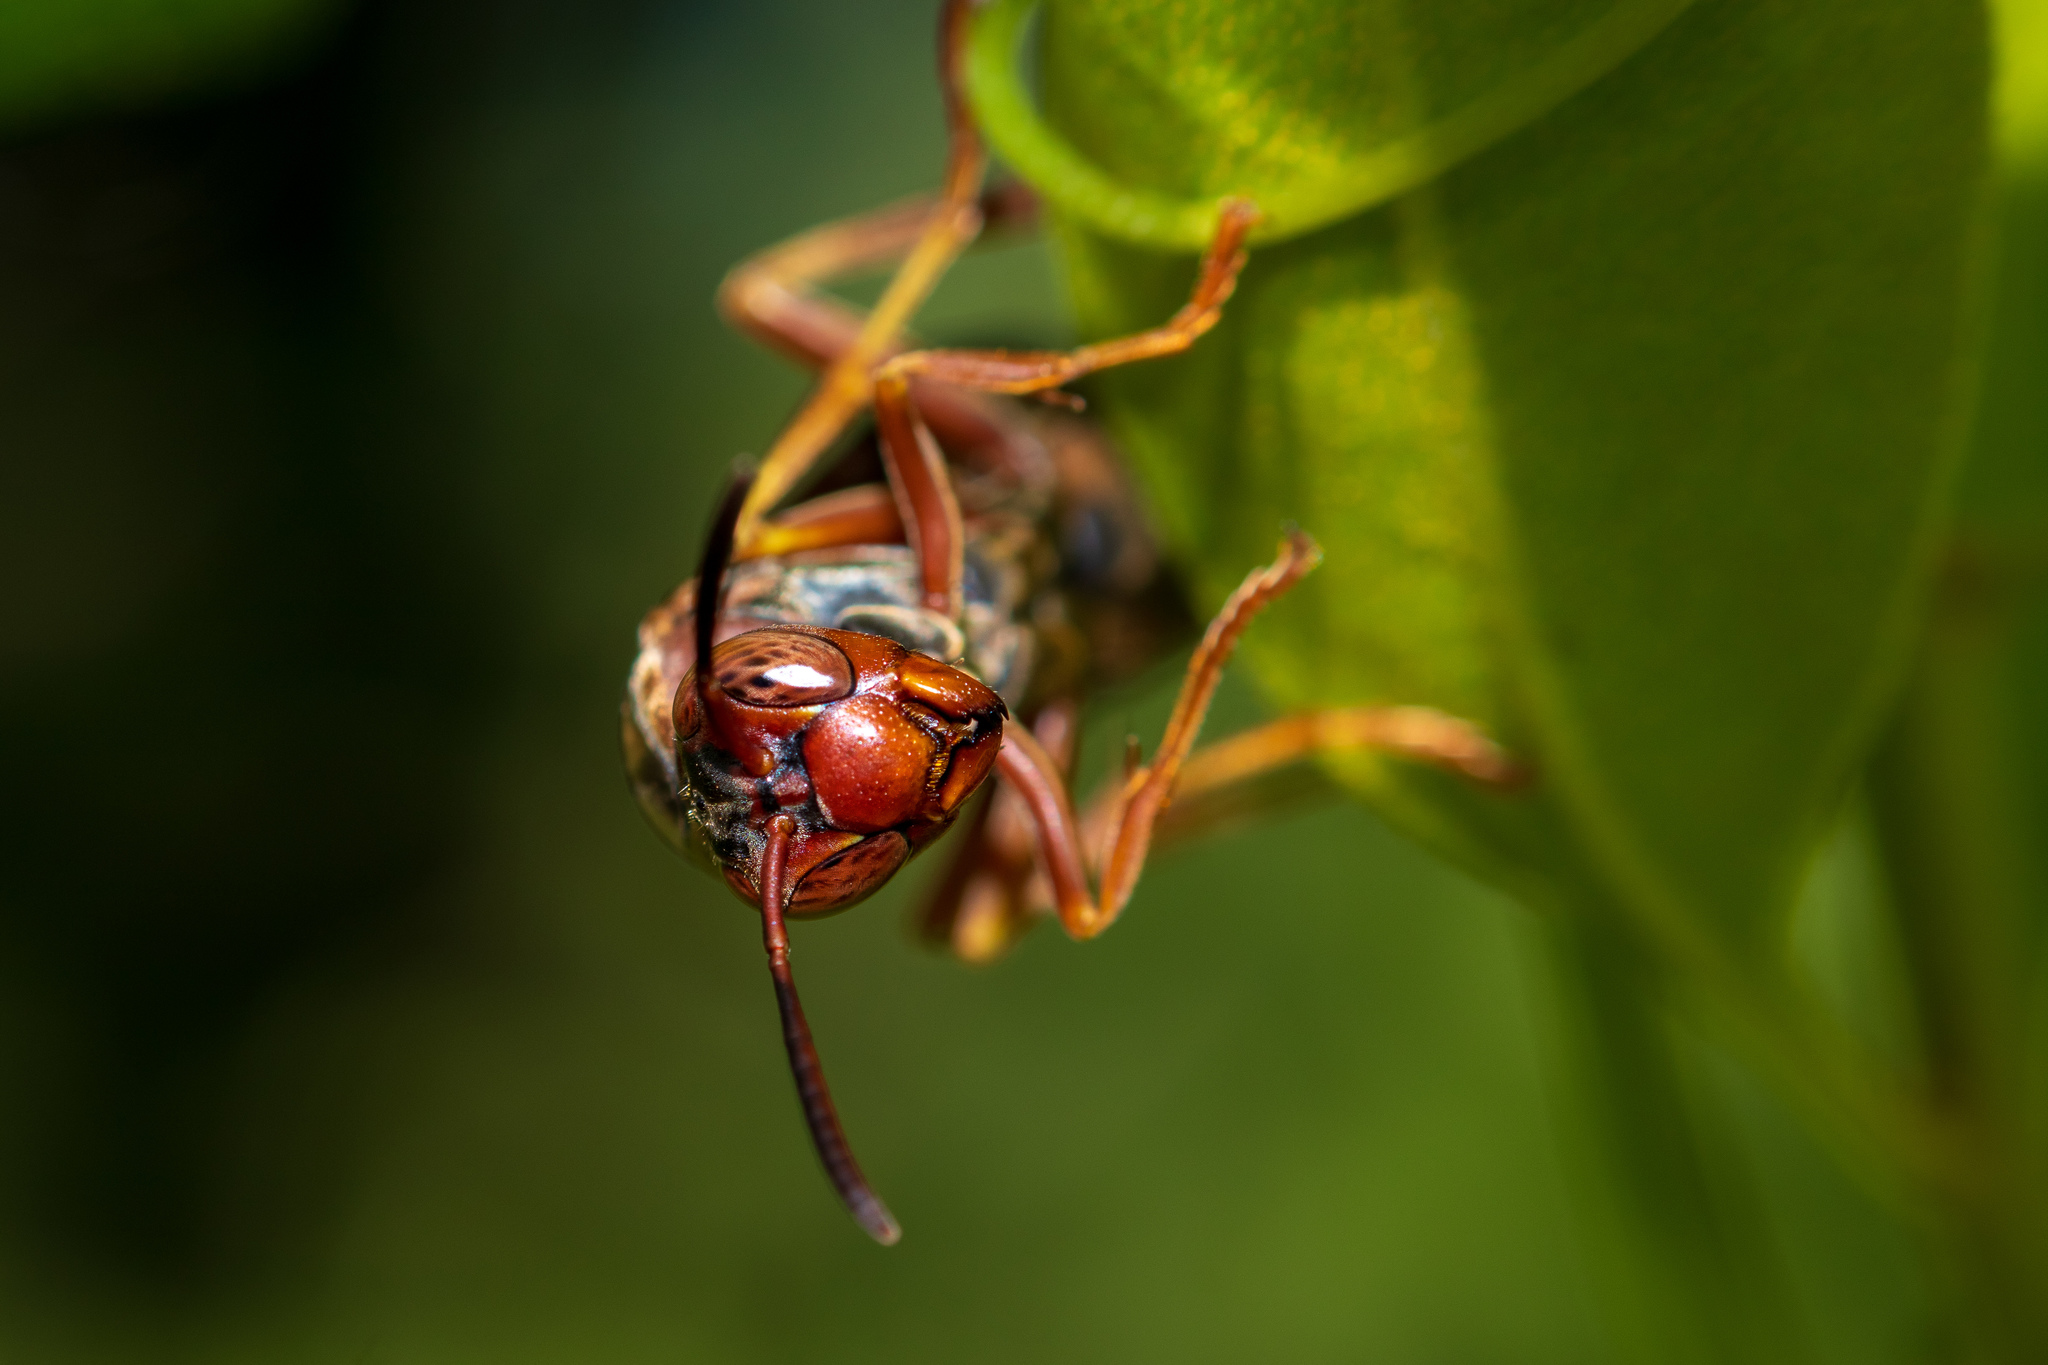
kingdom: Animalia
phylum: Arthropoda
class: Insecta
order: Hymenoptera
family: Vespidae
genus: Fuscopolistes
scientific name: Fuscopolistes
